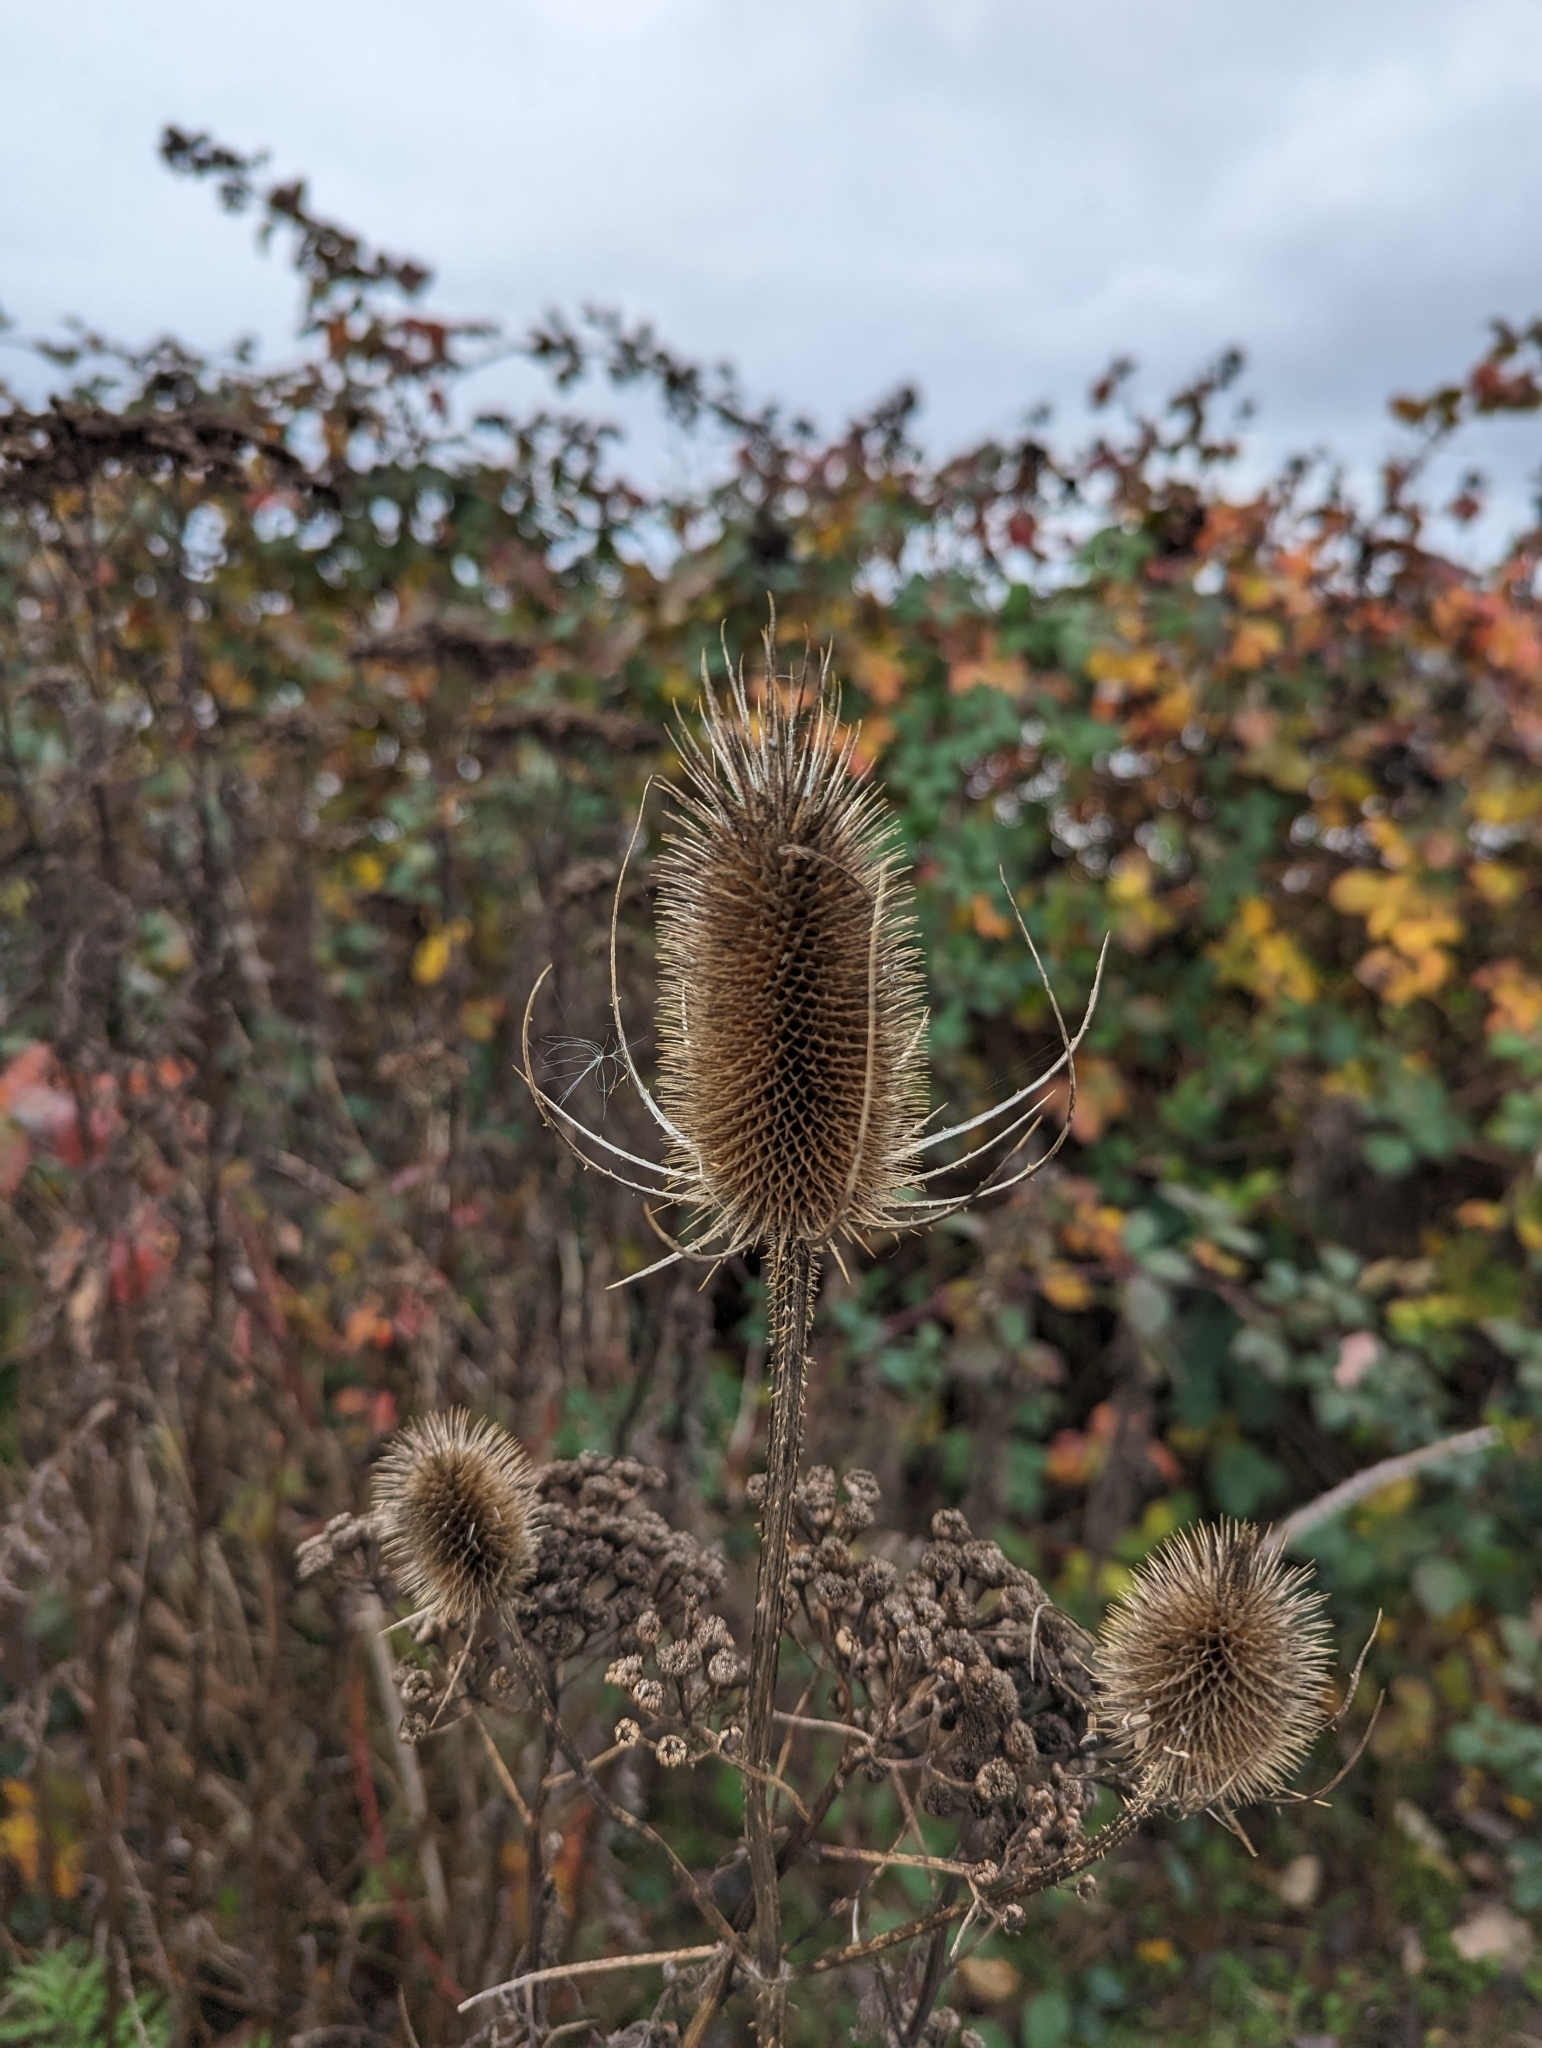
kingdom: Plantae
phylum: Tracheophyta
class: Magnoliopsida
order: Dipsacales
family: Caprifoliaceae
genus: Dipsacus
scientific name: Dipsacus fullonum
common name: Teasel
